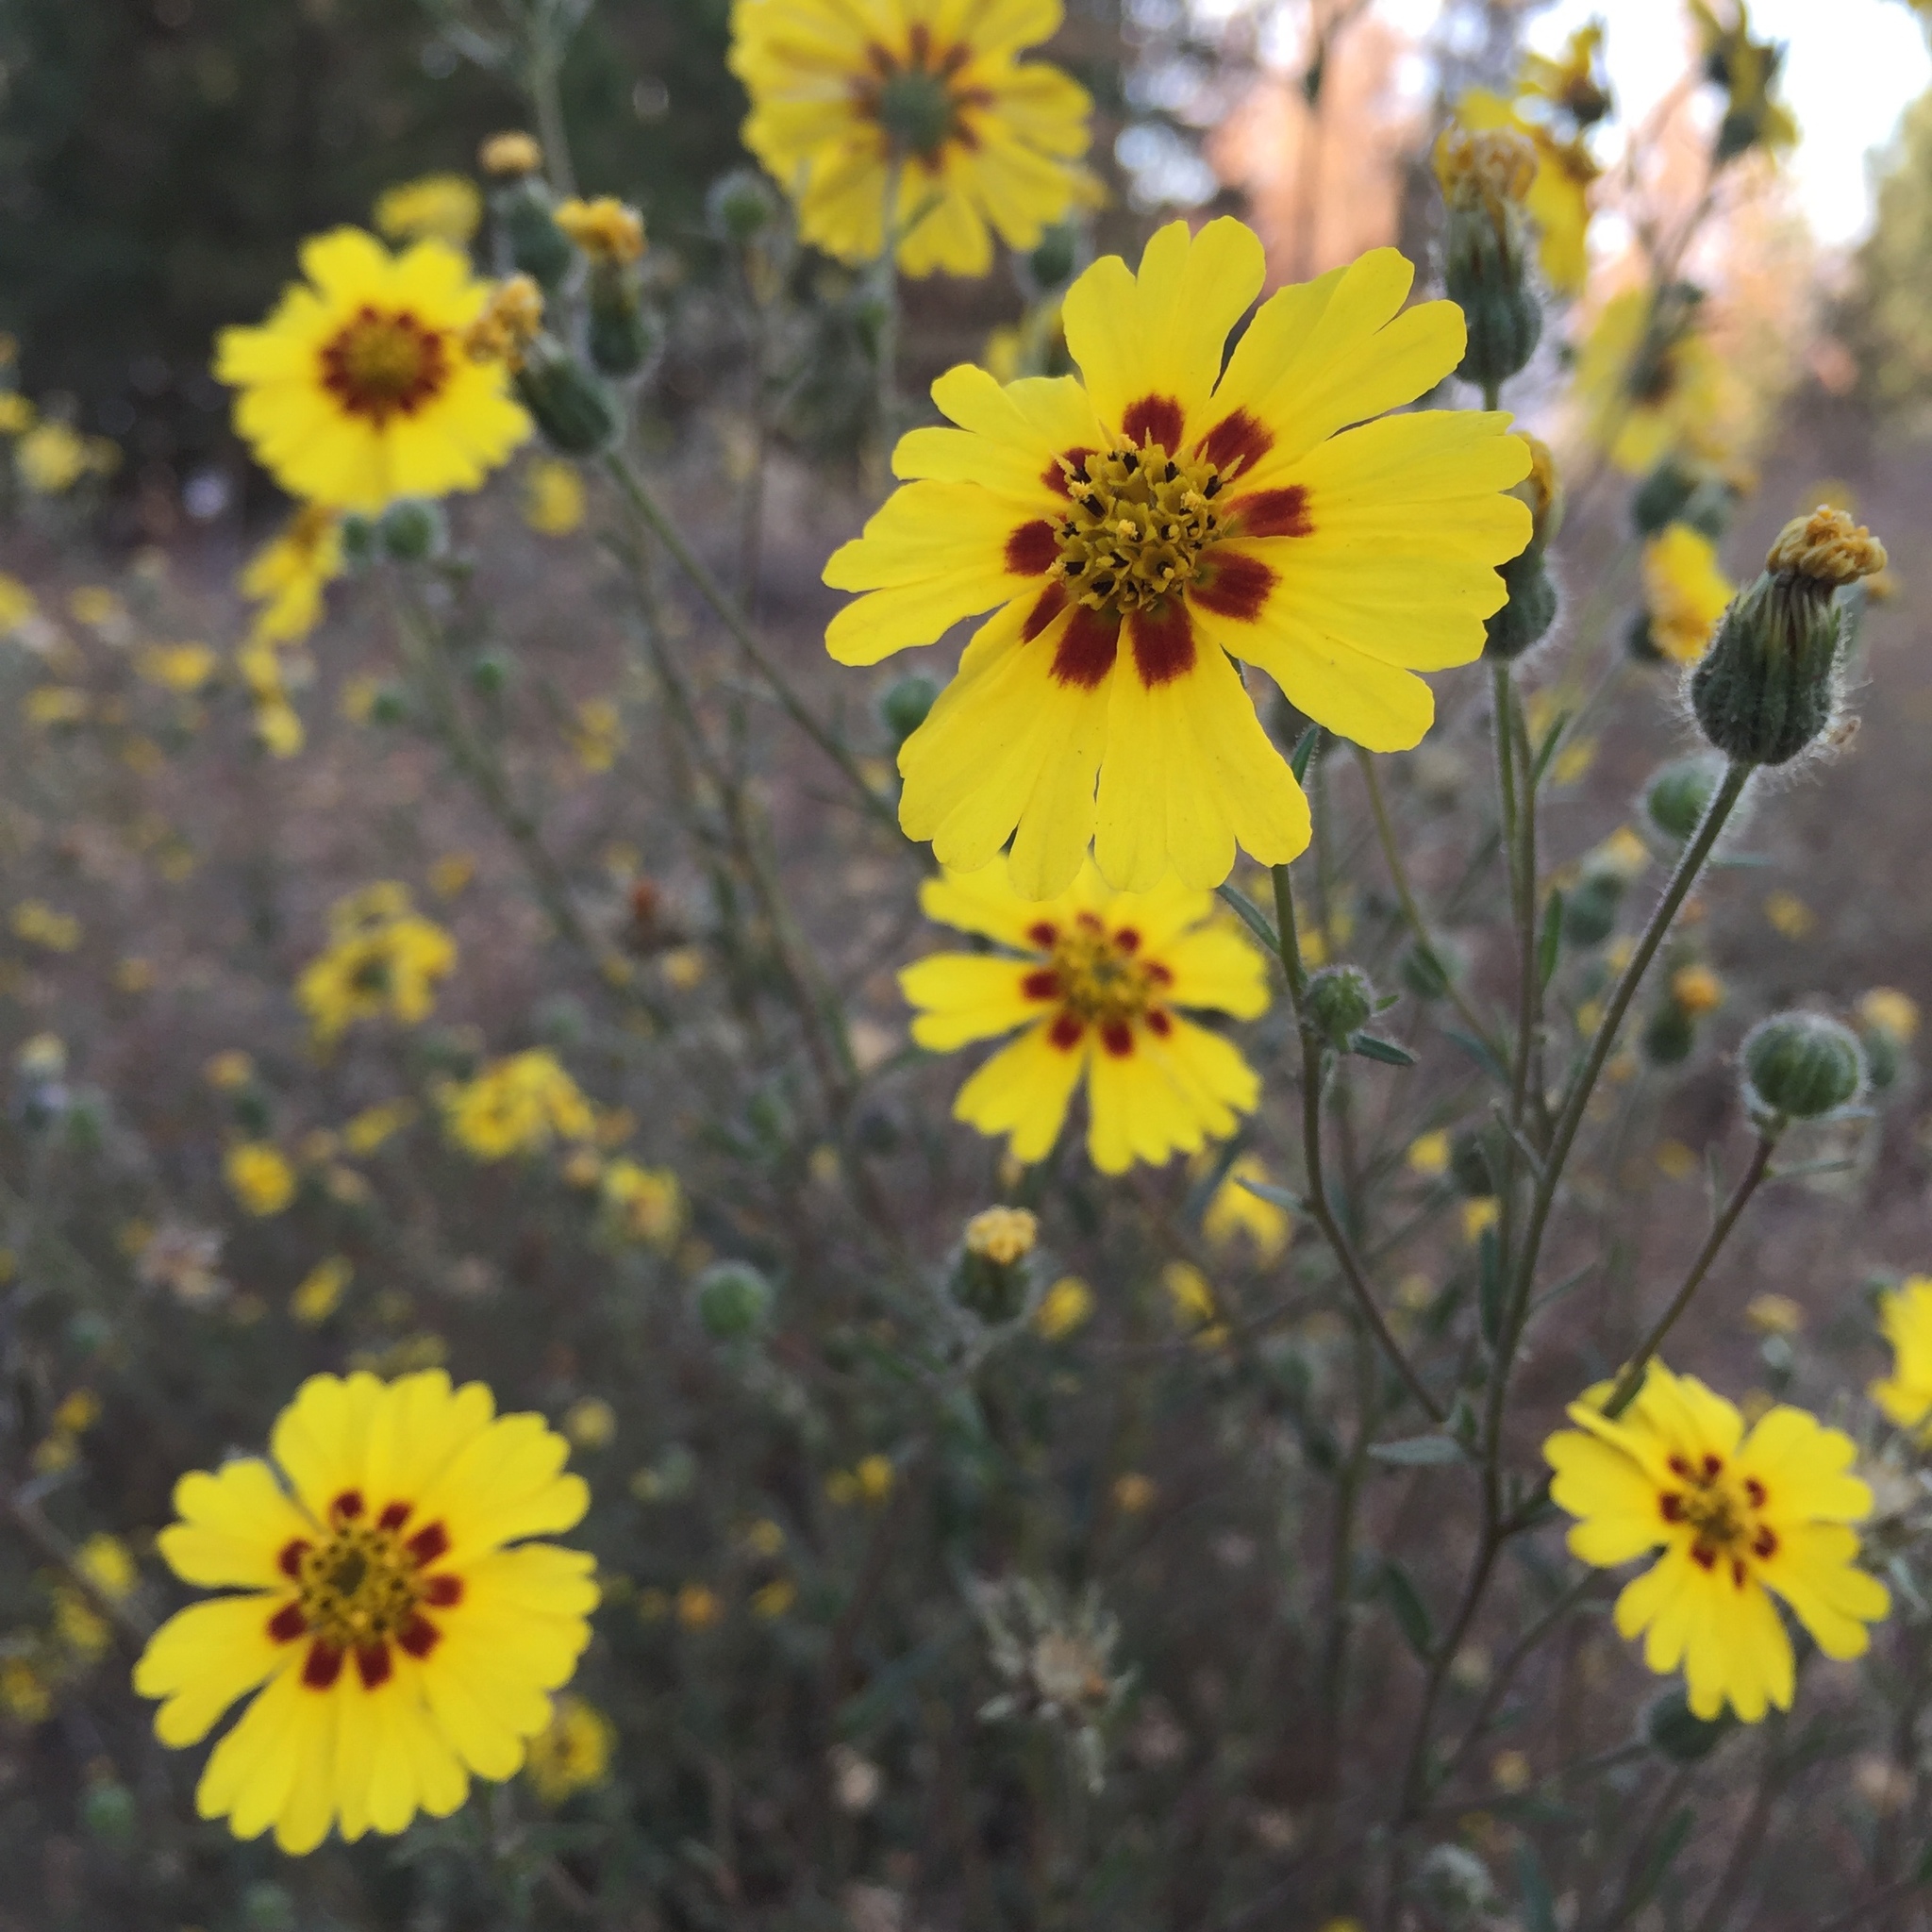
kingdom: Plantae
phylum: Tracheophyta
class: Magnoliopsida
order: Asterales
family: Asteraceae
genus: Madia
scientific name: Madia elegans
